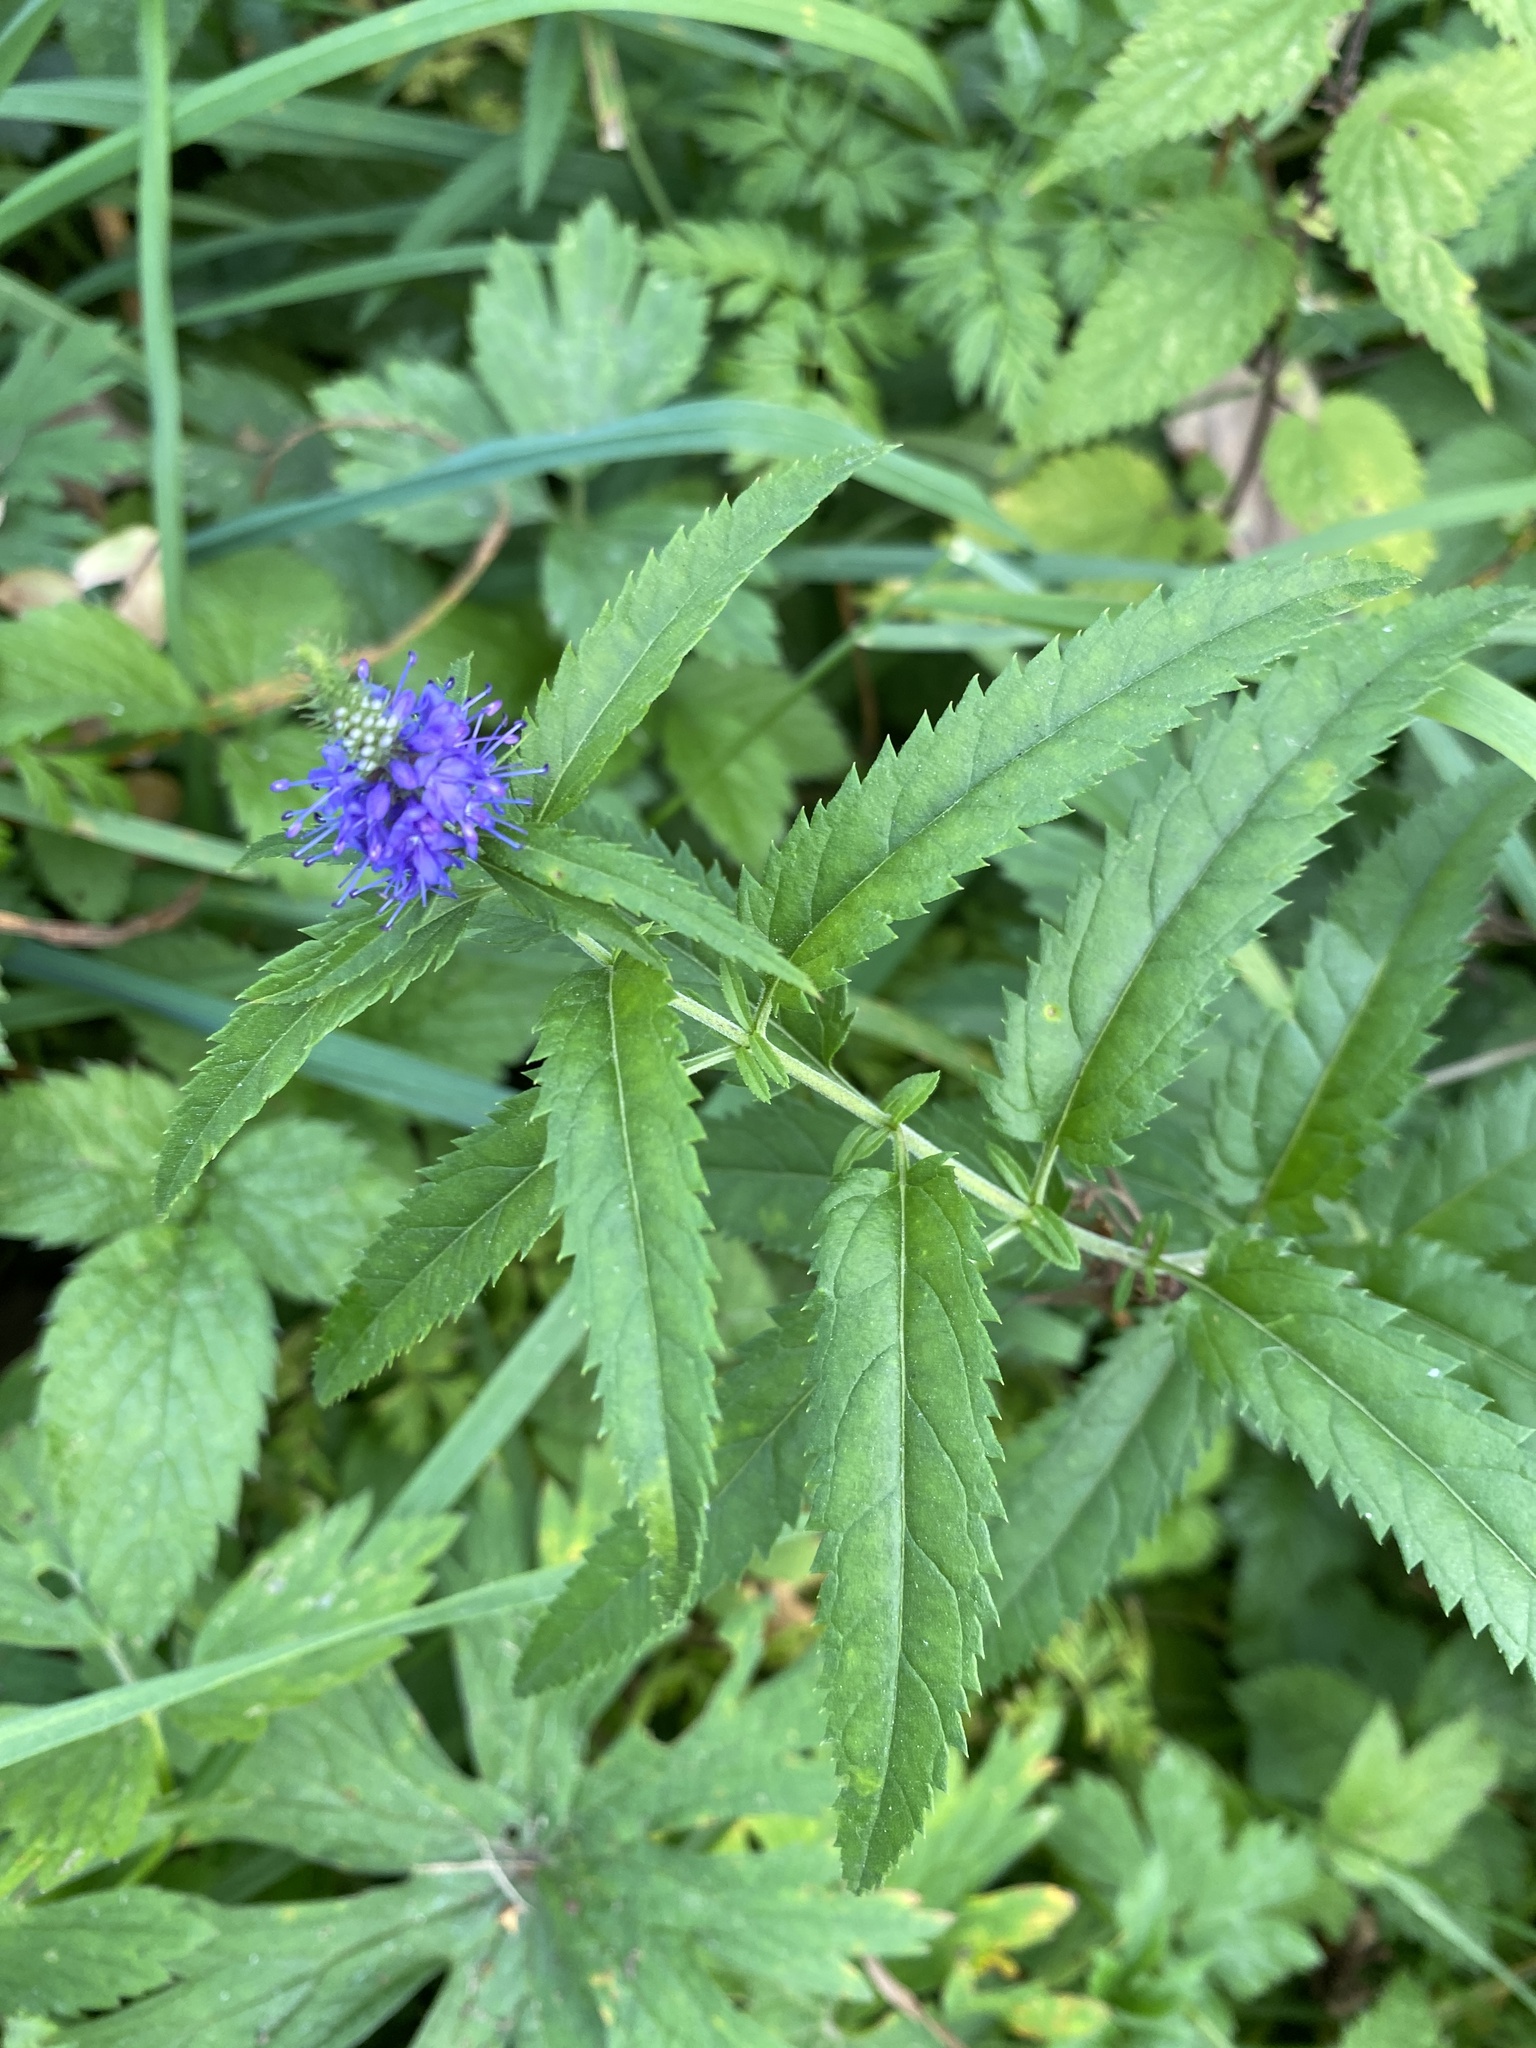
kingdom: Plantae
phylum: Tracheophyta
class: Magnoliopsida
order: Lamiales
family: Plantaginaceae
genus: Veronica
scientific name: Veronica longifolia
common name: Garden speedwell
